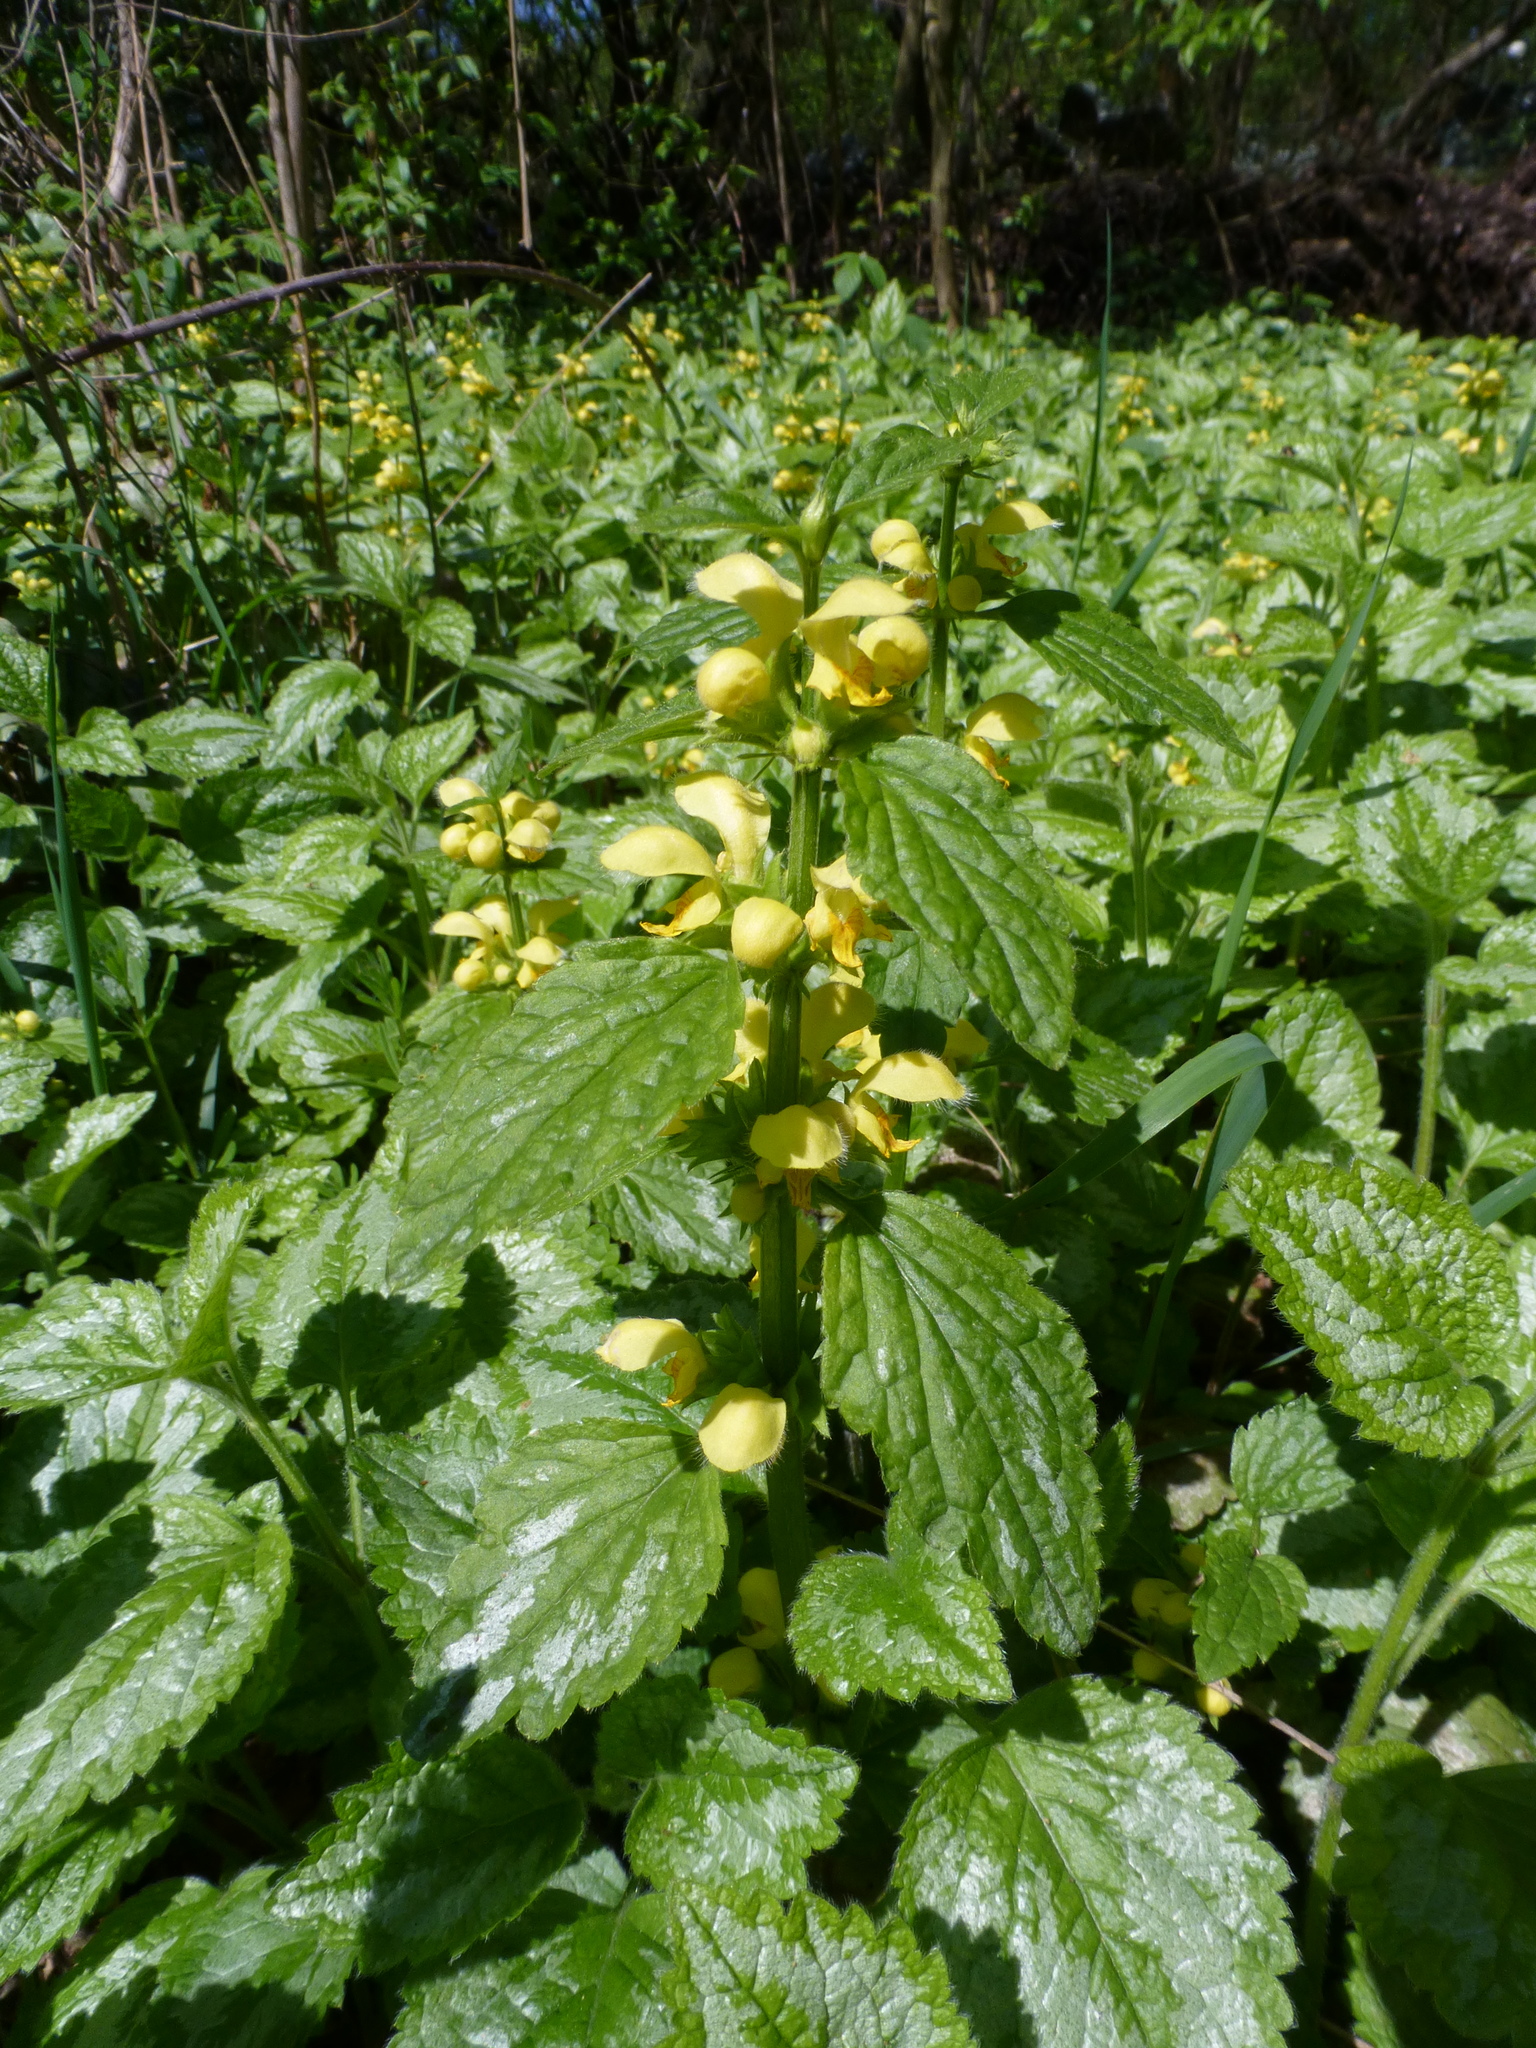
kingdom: Plantae
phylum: Tracheophyta
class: Magnoliopsida
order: Lamiales
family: Lamiaceae
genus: Lamium
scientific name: Lamium galeobdolon
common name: Yellow archangel
